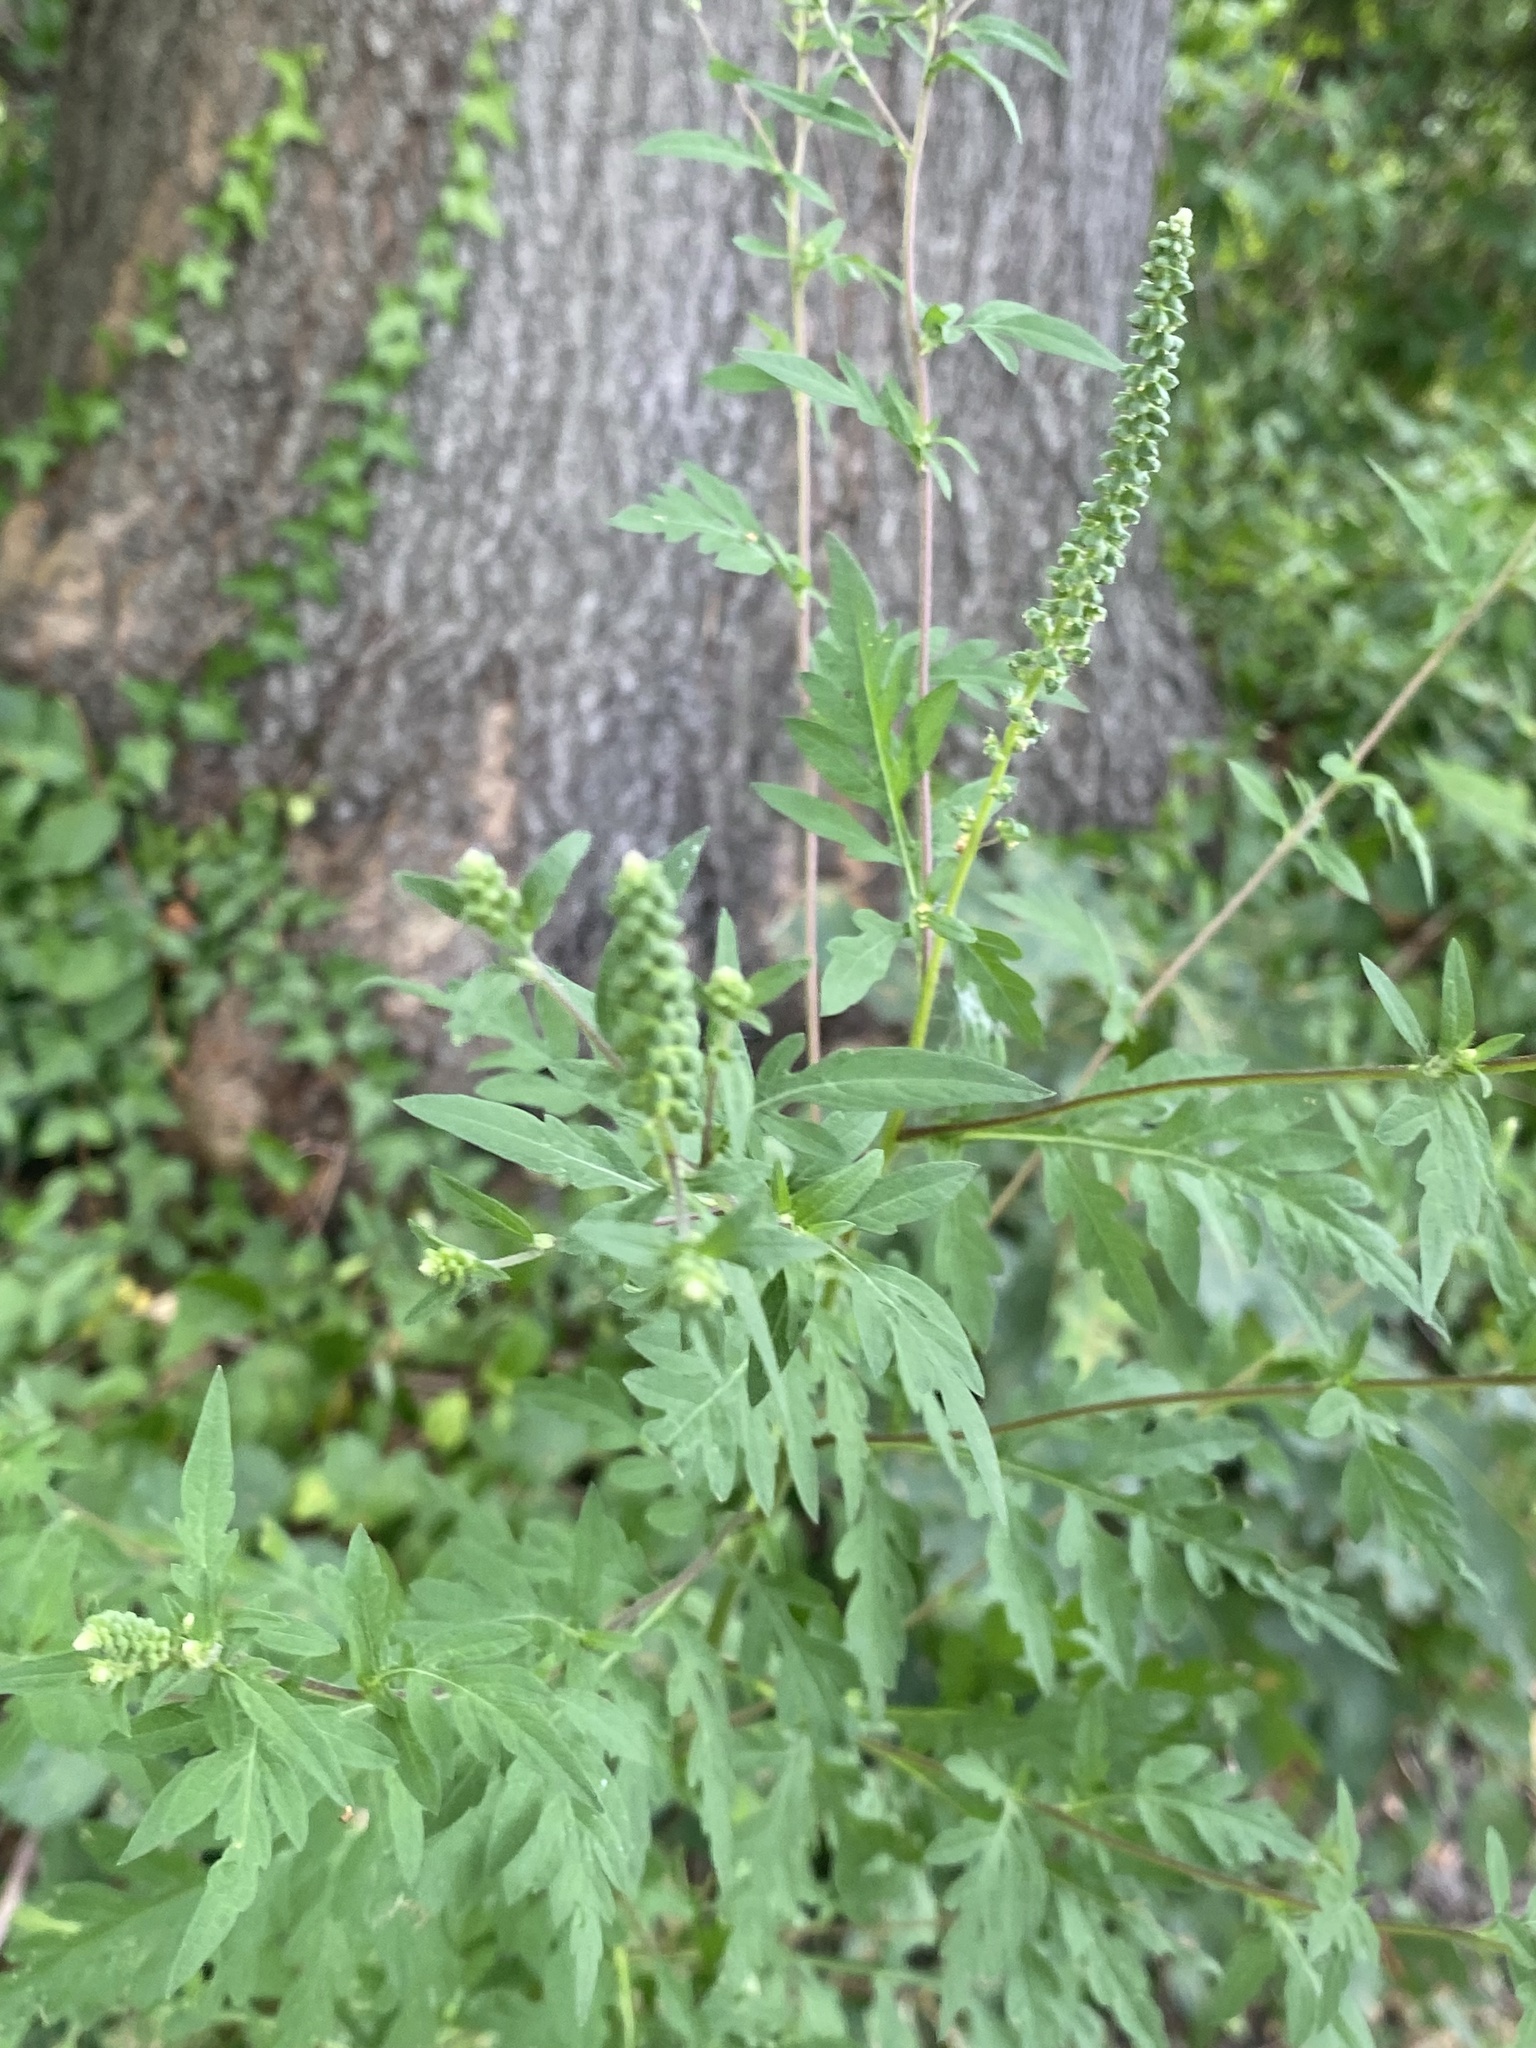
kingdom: Plantae
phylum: Tracheophyta
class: Magnoliopsida
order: Asterales
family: Asteraceae
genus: Ambrosia
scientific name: Ambrosia artemisiifolia
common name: Annual ragweed
